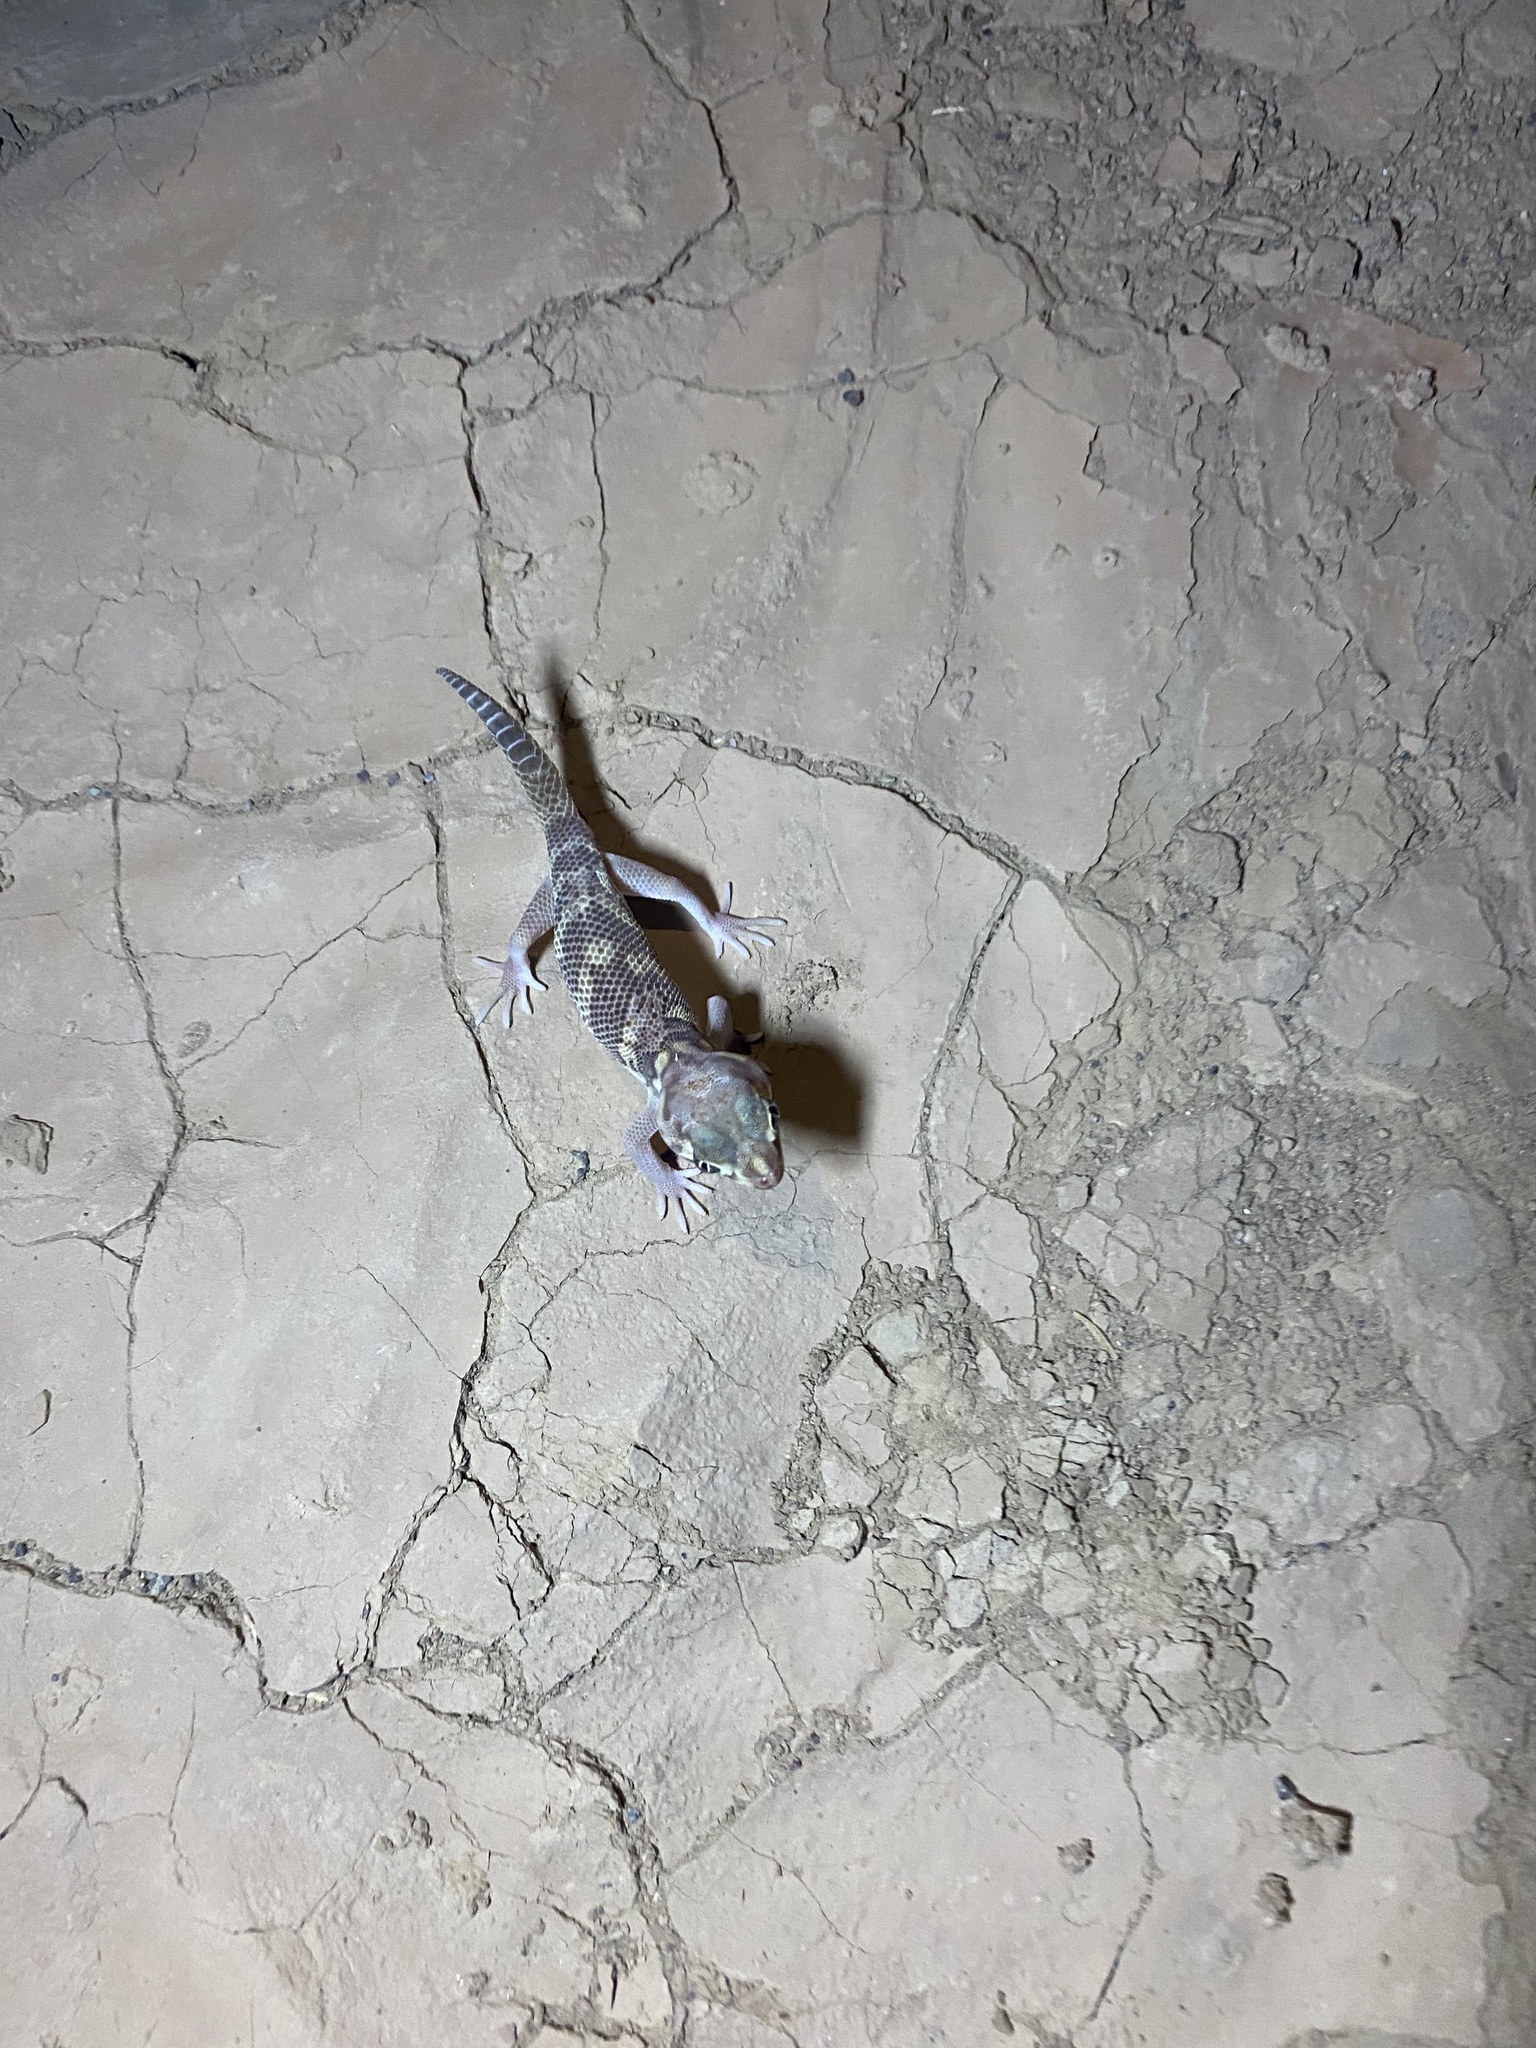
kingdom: Animalia
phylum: Chordata
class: Squamata
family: Sphaerodactylidae
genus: Teratoscincus
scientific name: Teratoscincus bedriagai
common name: Bedriaga's plate-tailed gecko
